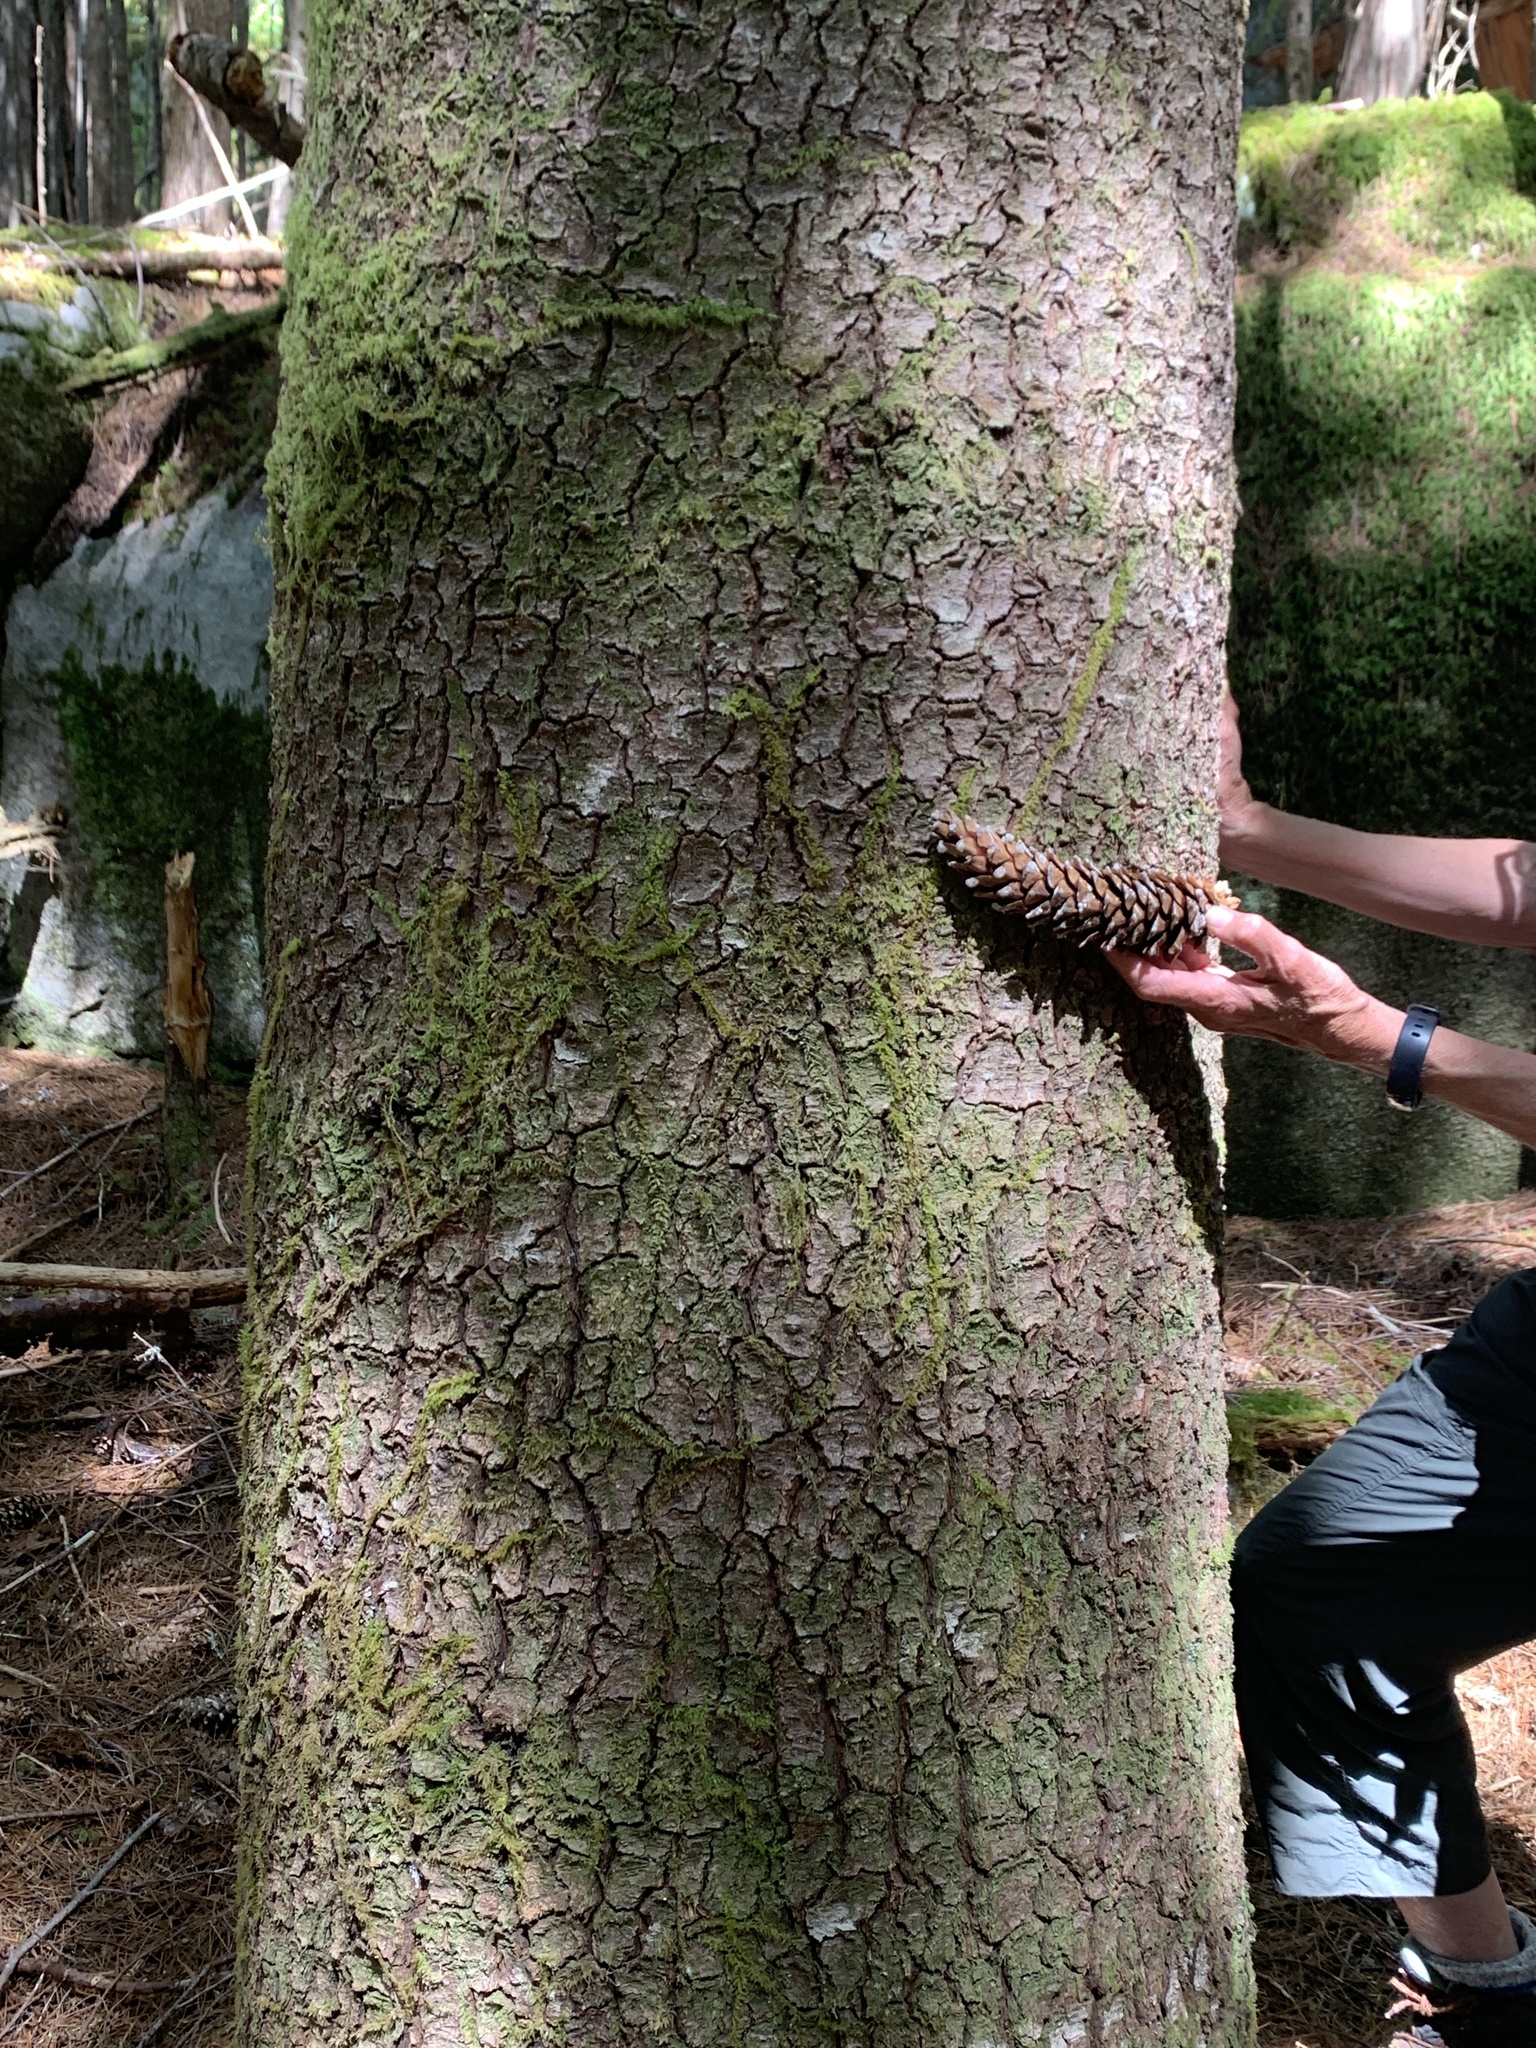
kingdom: Plantae
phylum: Tracheophyta
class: Pinopsida
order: Pinales
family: Pinaceae
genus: Pinus
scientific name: Pinus monticola
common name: Western white pine
